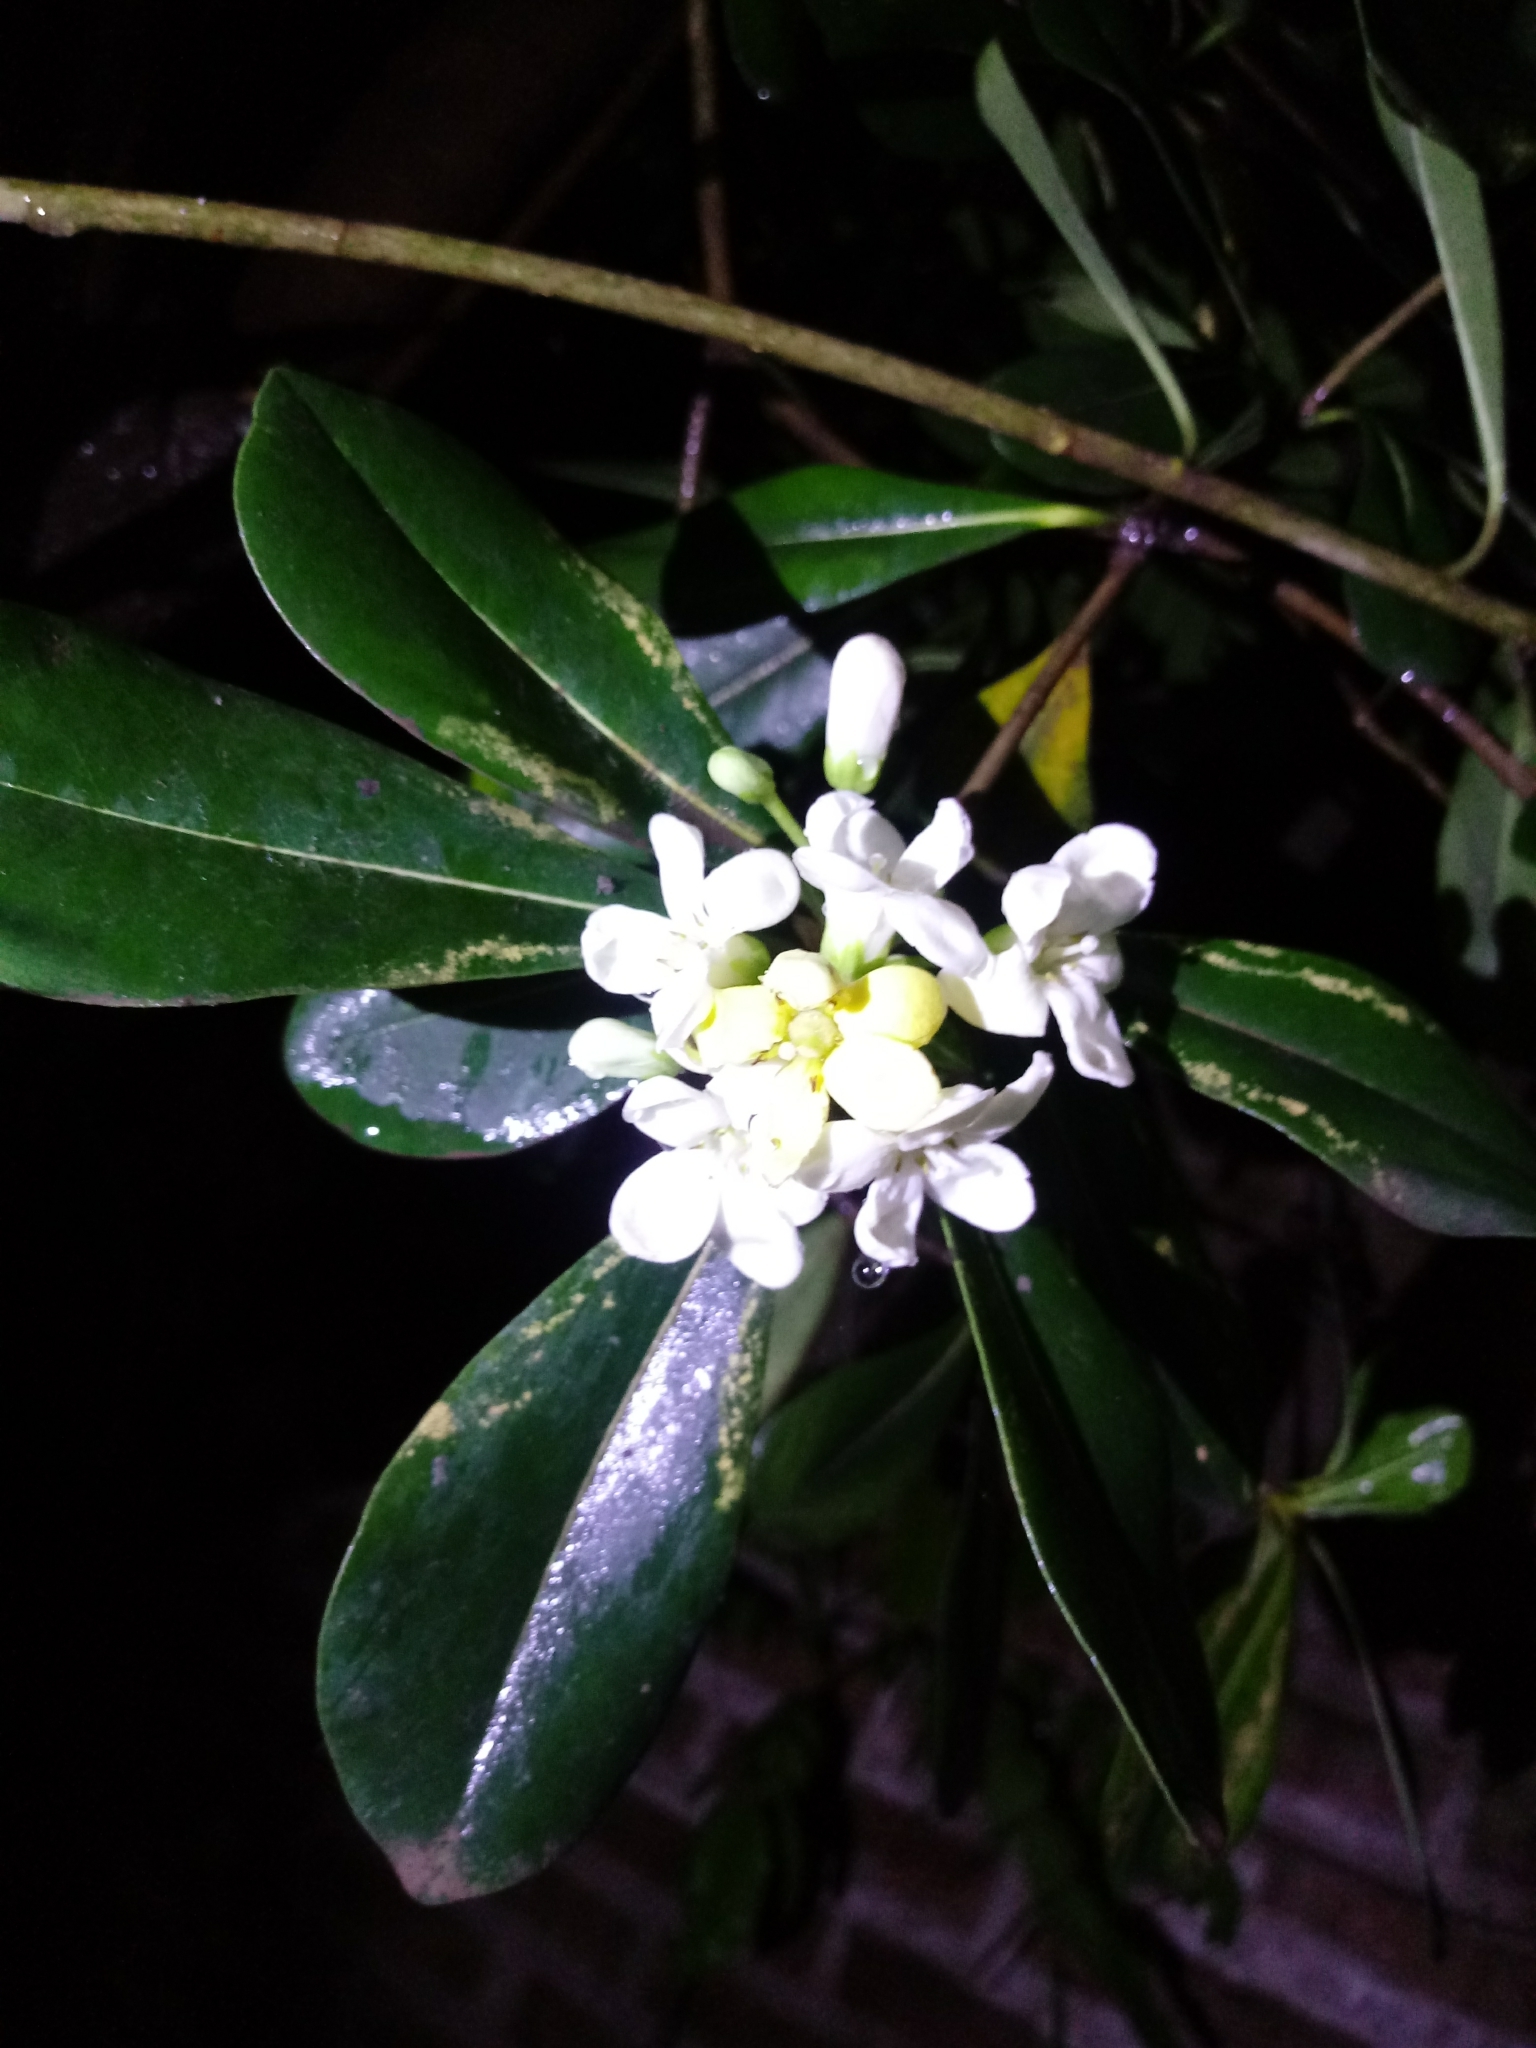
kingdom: Plantae
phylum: Tracheophyta
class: Magnoliopsida
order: Apiales
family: Pittosporaceae
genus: Pittosporum
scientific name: Pittosporum tobira
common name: Japanese cheesewood
